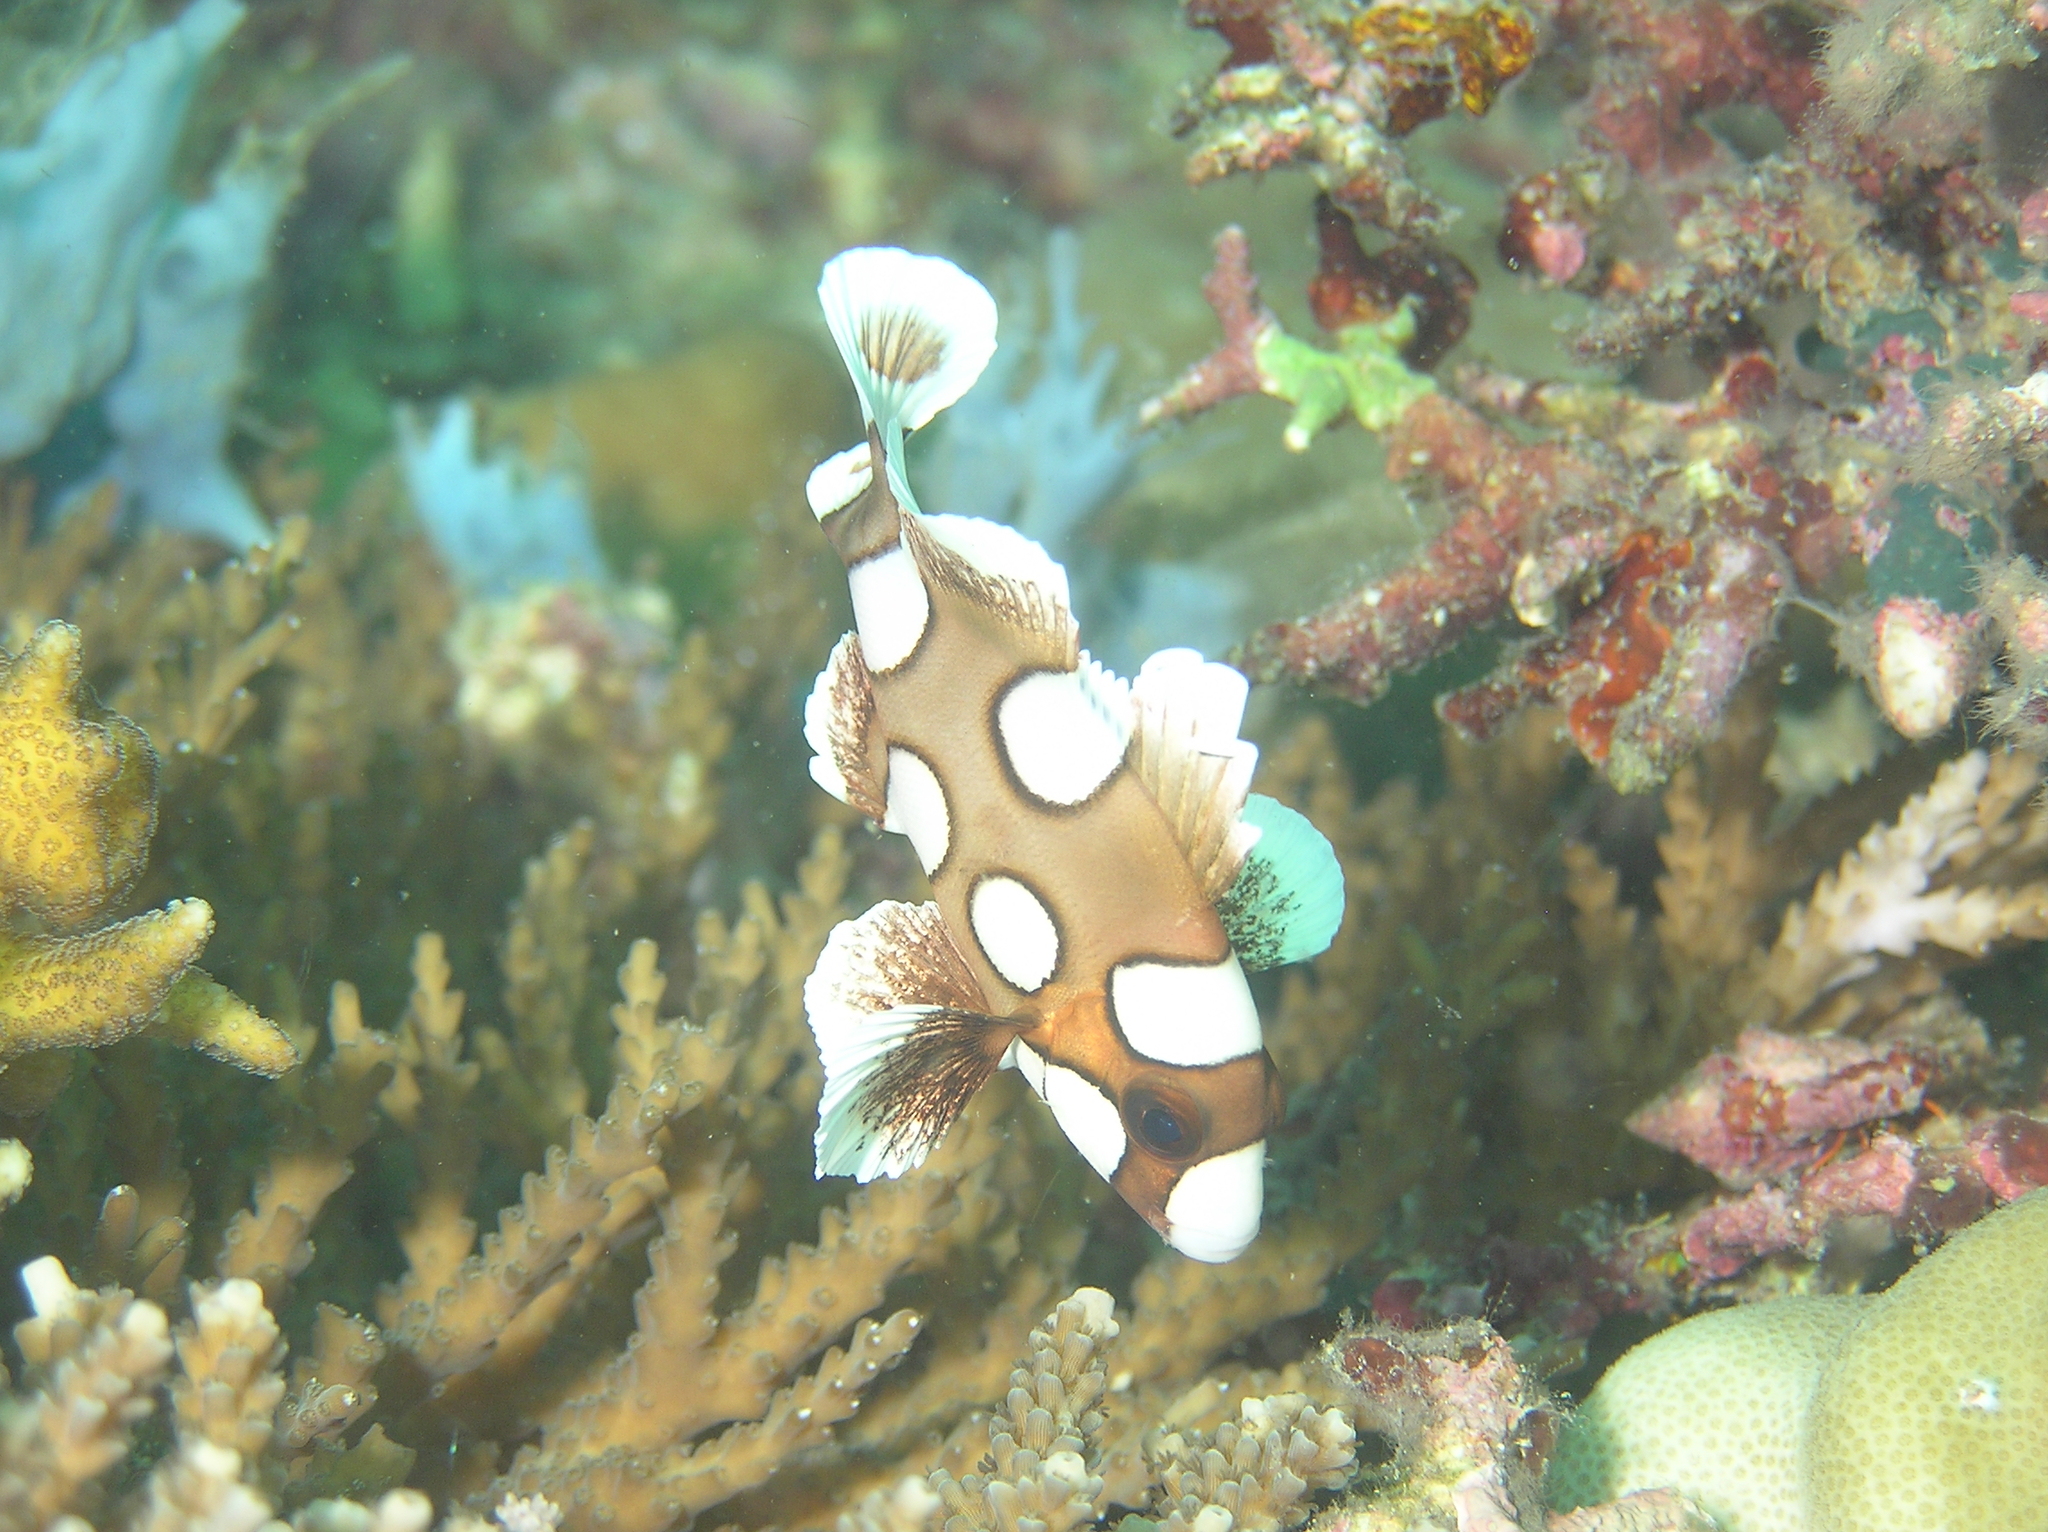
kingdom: Animalia
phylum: Chordata
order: Perciformes
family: Haemulidae
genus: Plectorhinchus
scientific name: Plectorhinchus chaetodonoides
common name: Harlequin sweetlips
